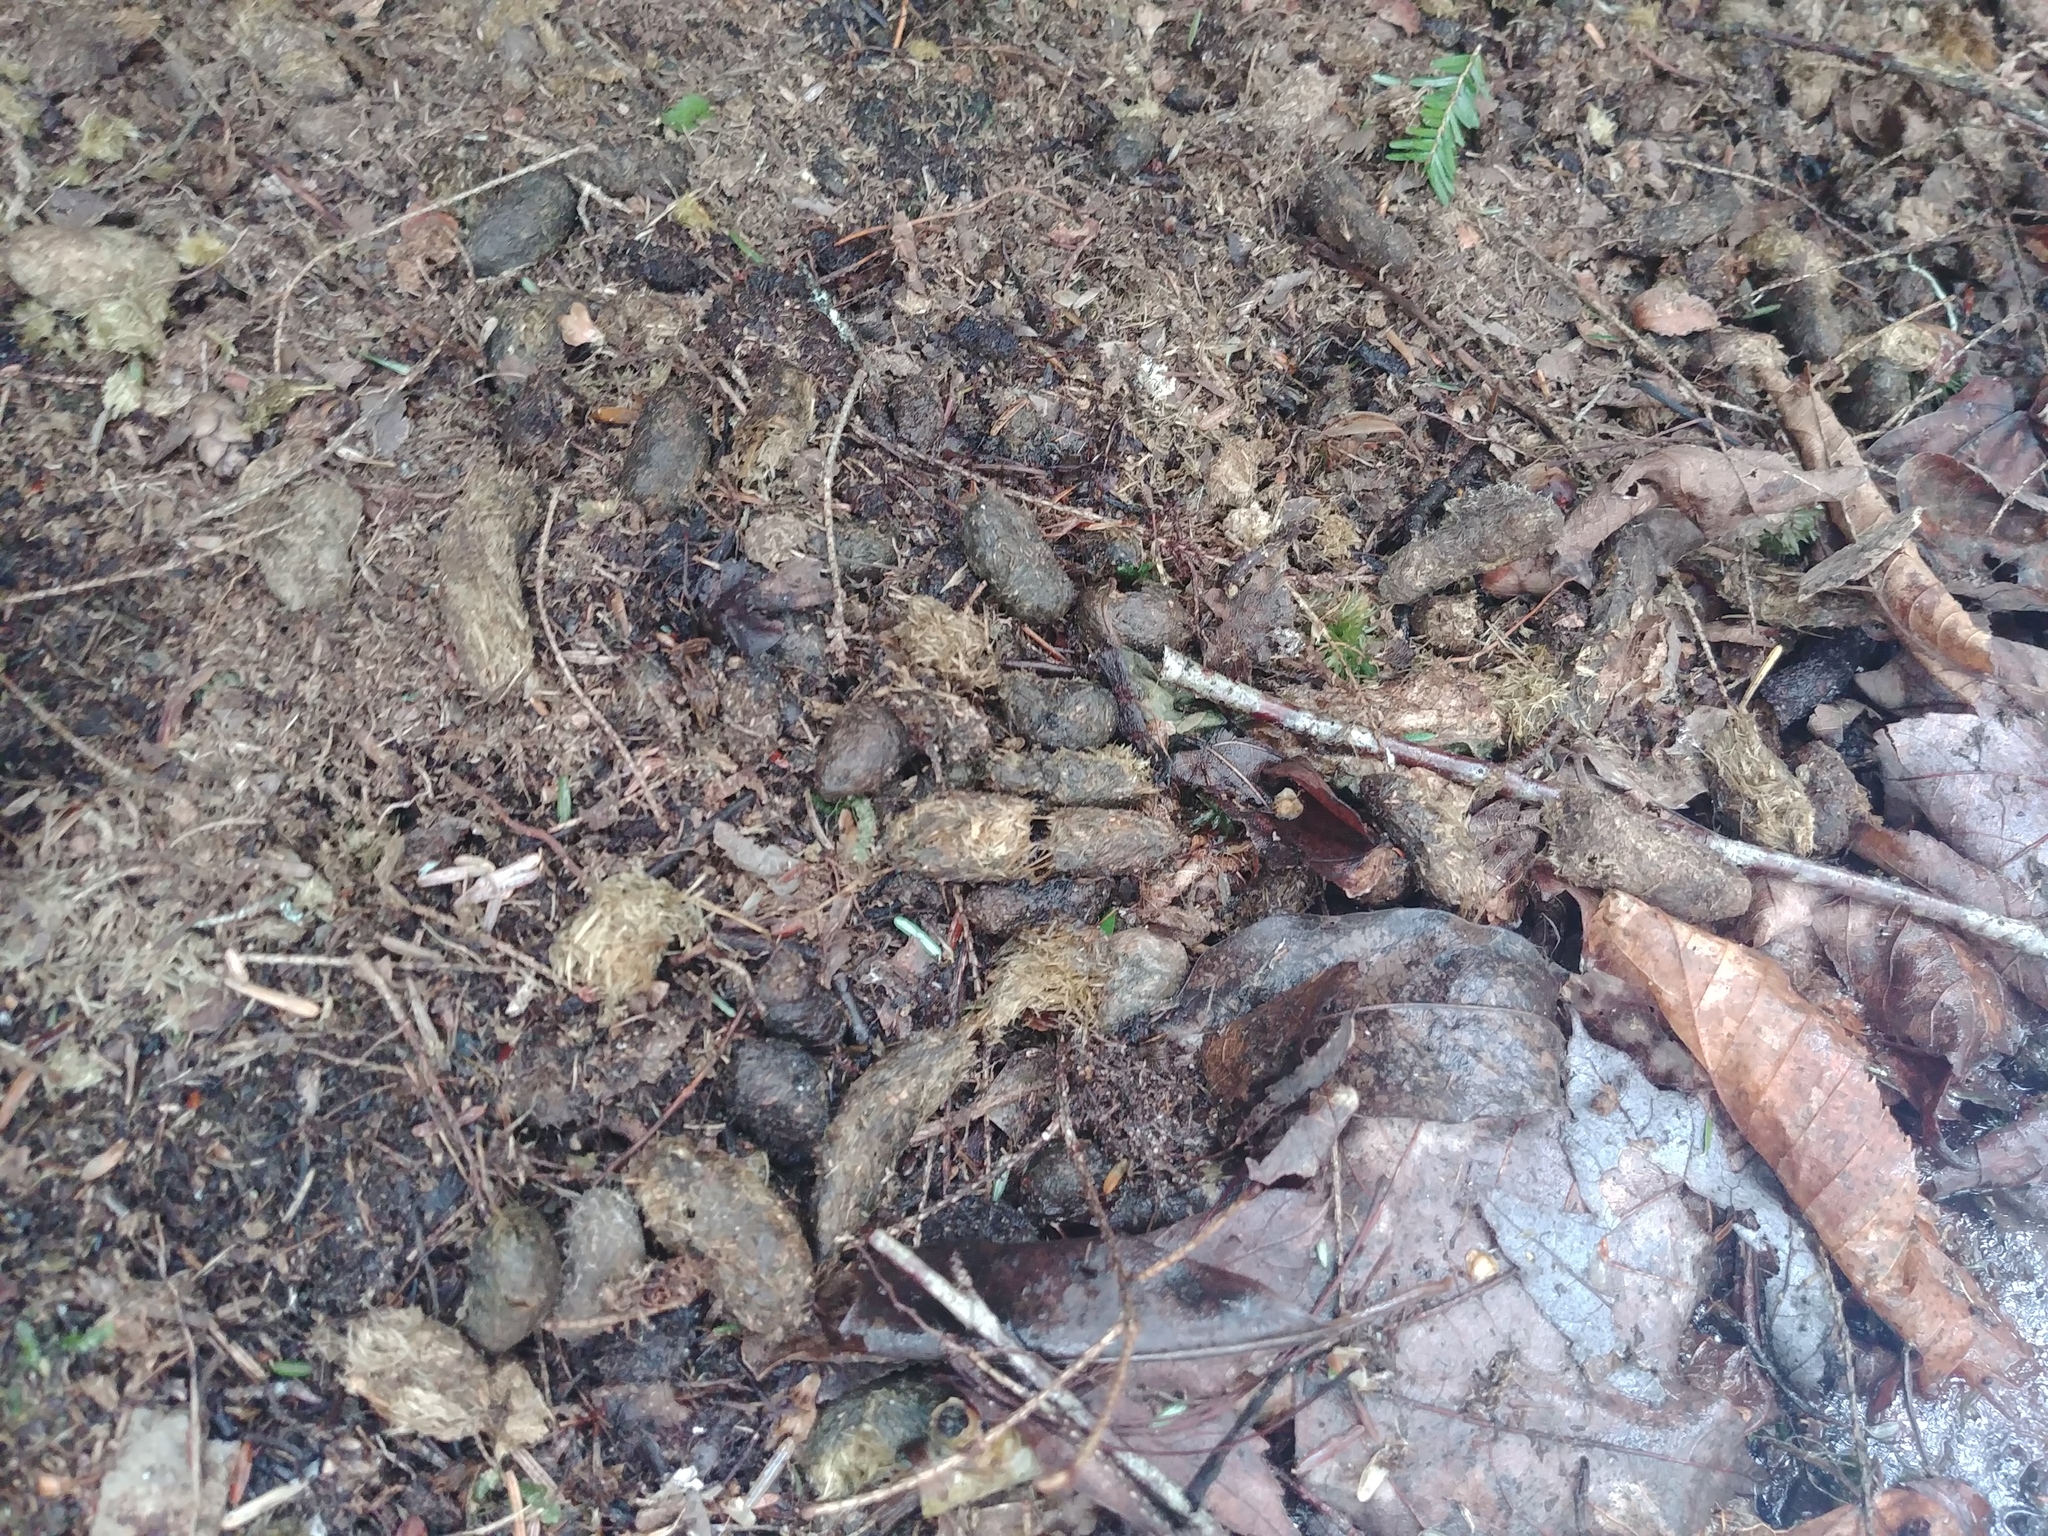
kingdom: Animalia
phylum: Chordata
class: Mammalia
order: Rodentia
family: Erethizontidae
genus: Erethizon
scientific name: Erethizon dorsatus
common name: North american porcupine
